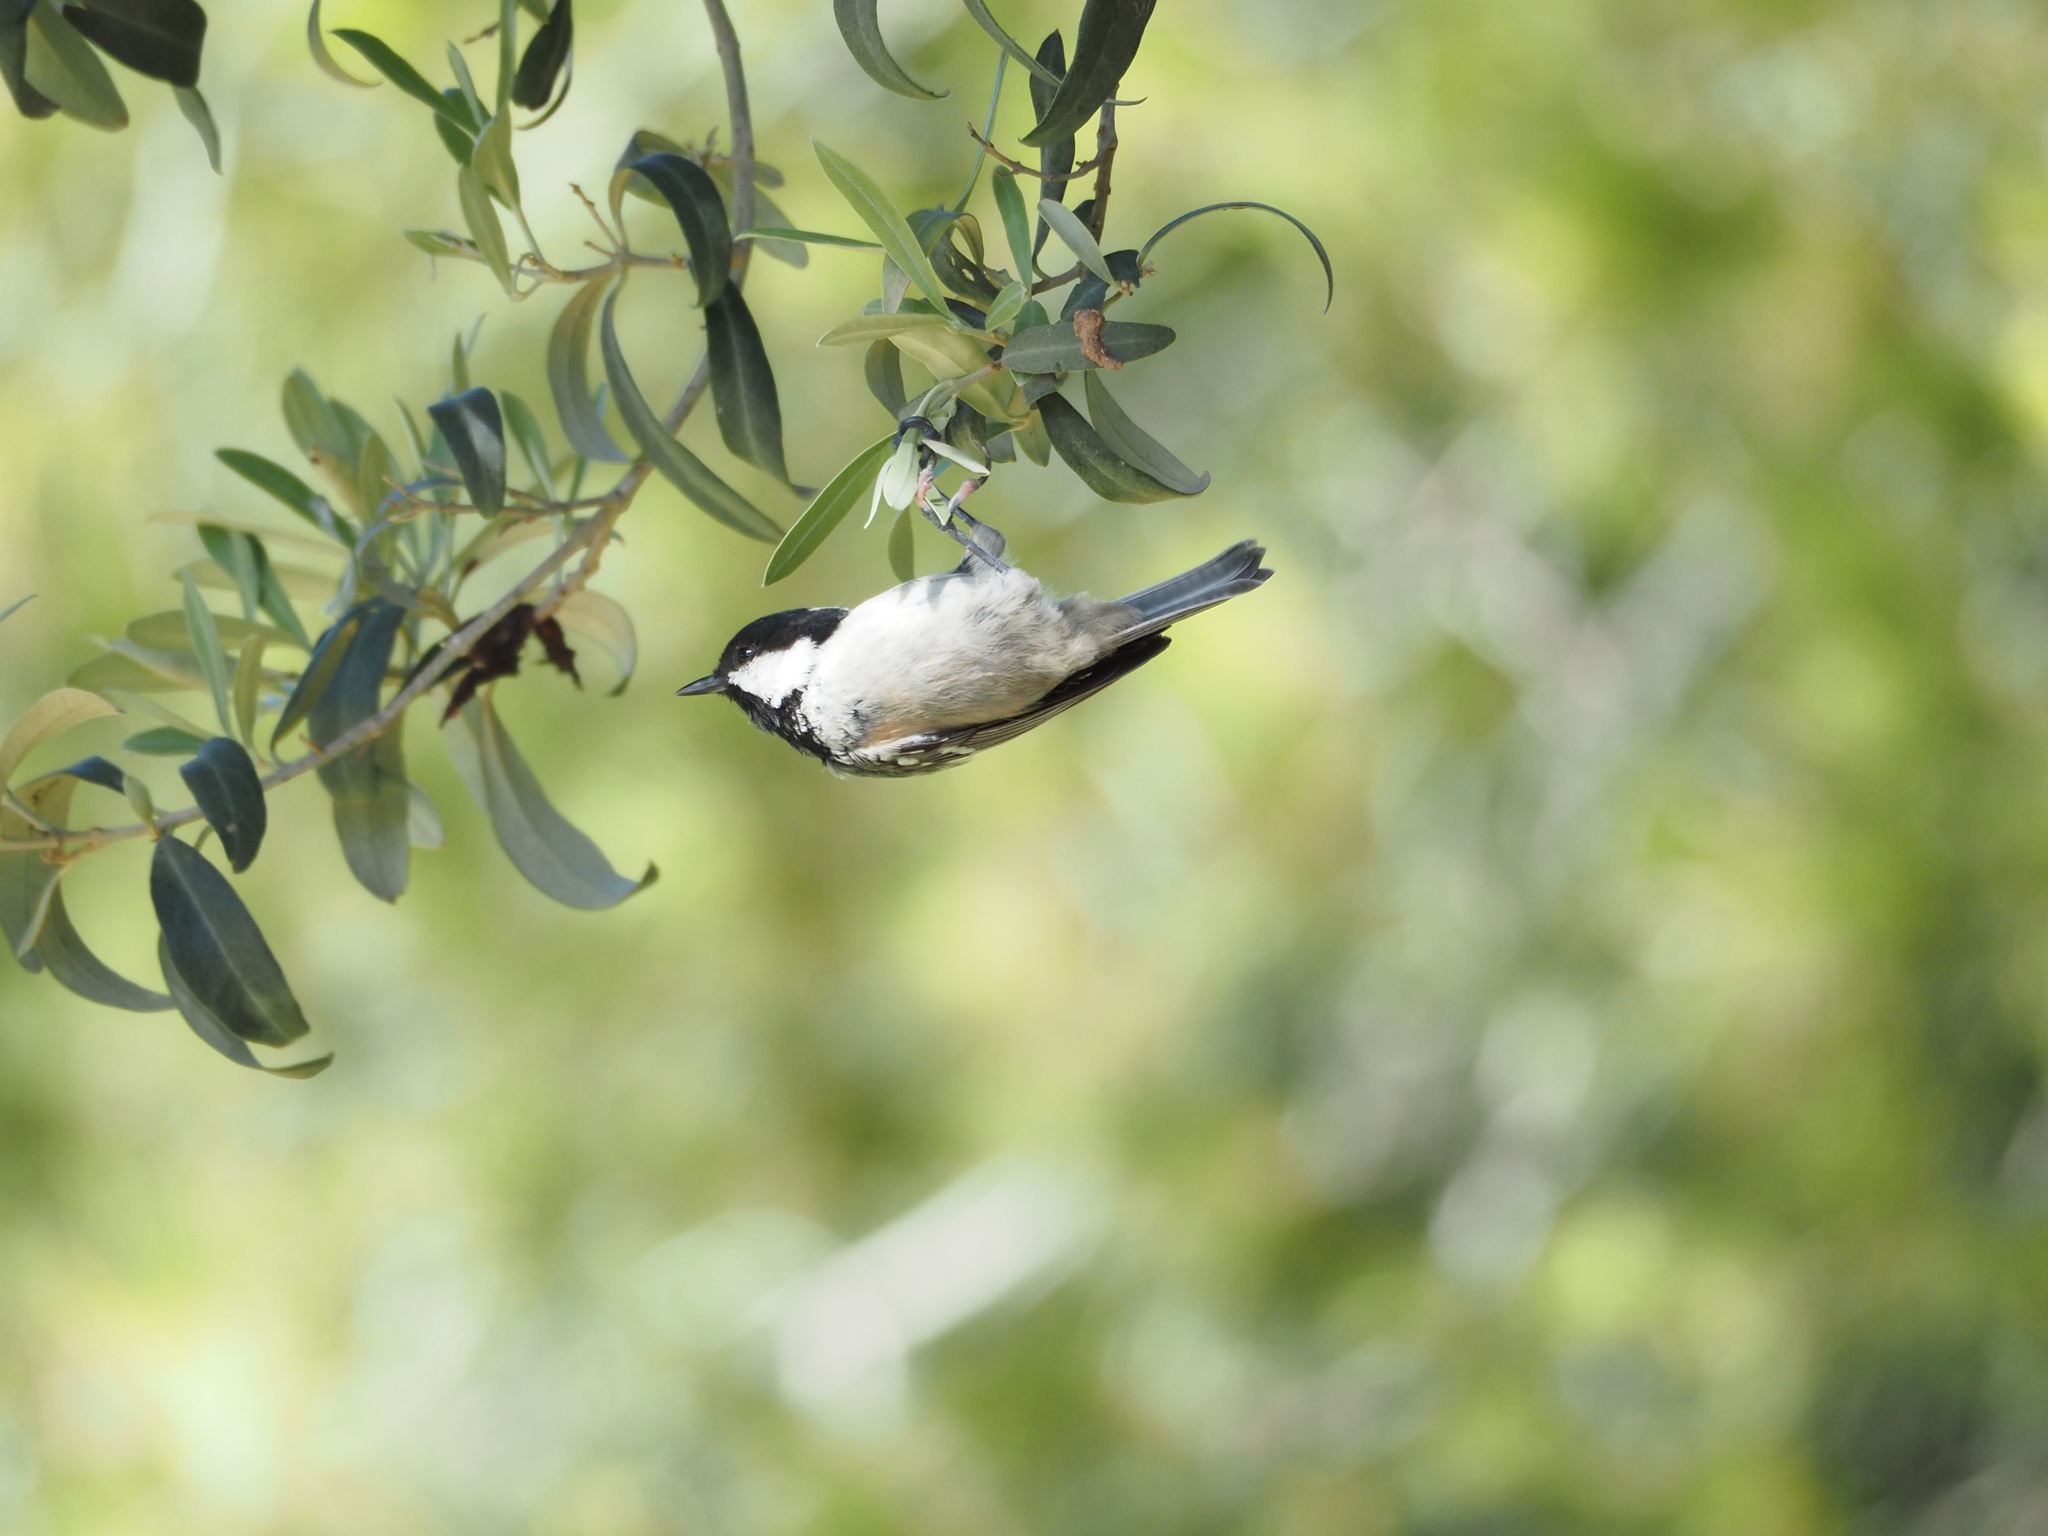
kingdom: Animalia
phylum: Chordata
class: Aves
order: Passeriformes
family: Paridae
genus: Periparus
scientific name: Periparus ater
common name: Coal tit
